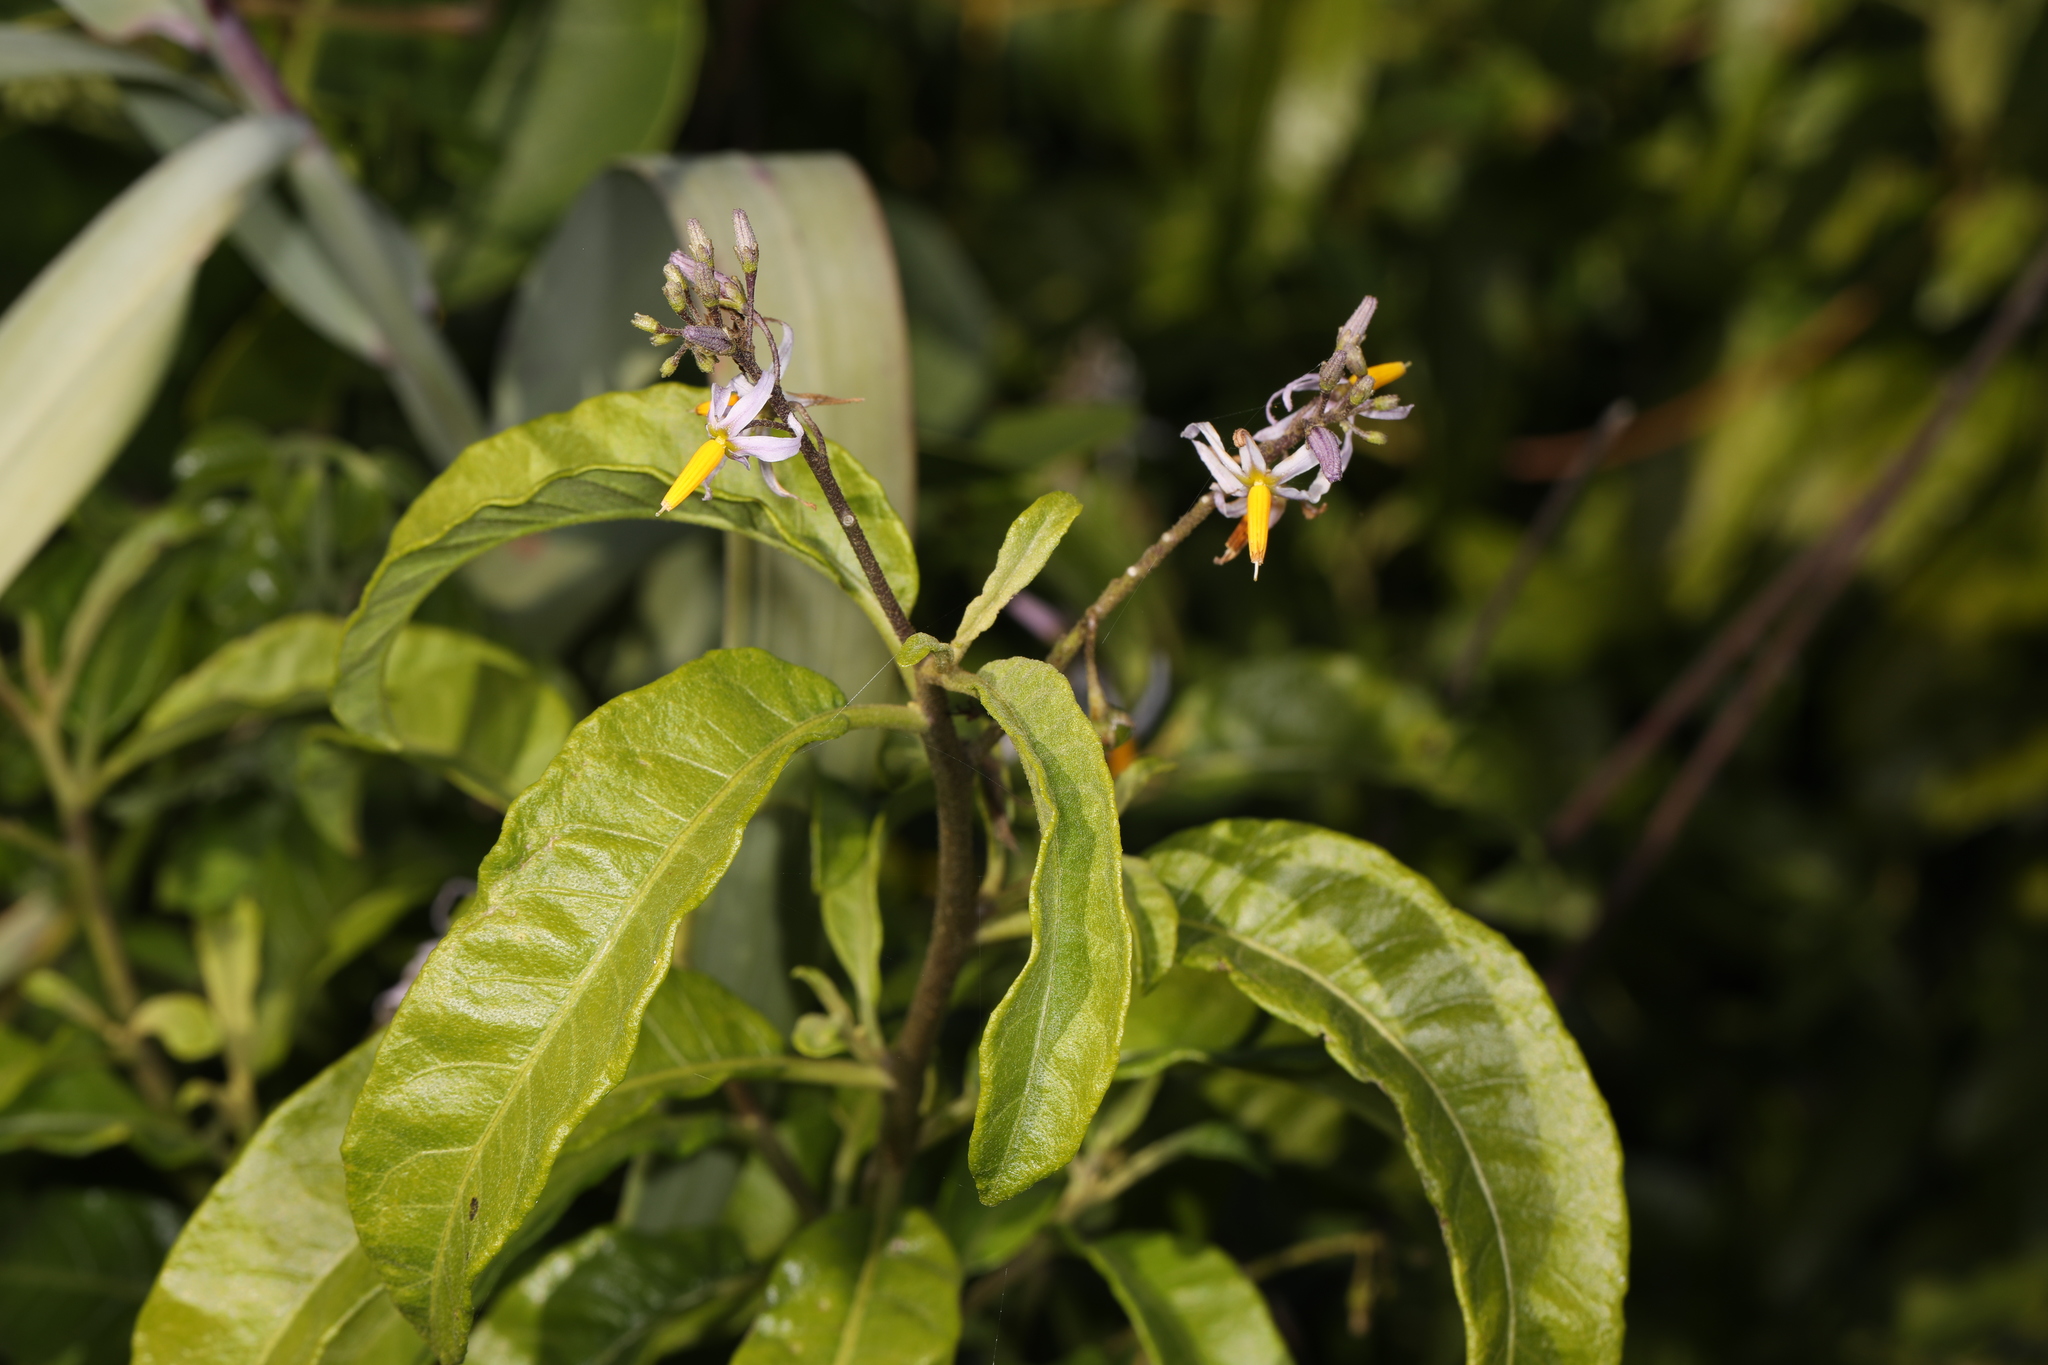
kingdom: Plantae
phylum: Tracheophyta
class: Magnoliopsida
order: Solanales
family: Solanaceae
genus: Solanum
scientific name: Solanum bahamense
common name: Canker-berry
